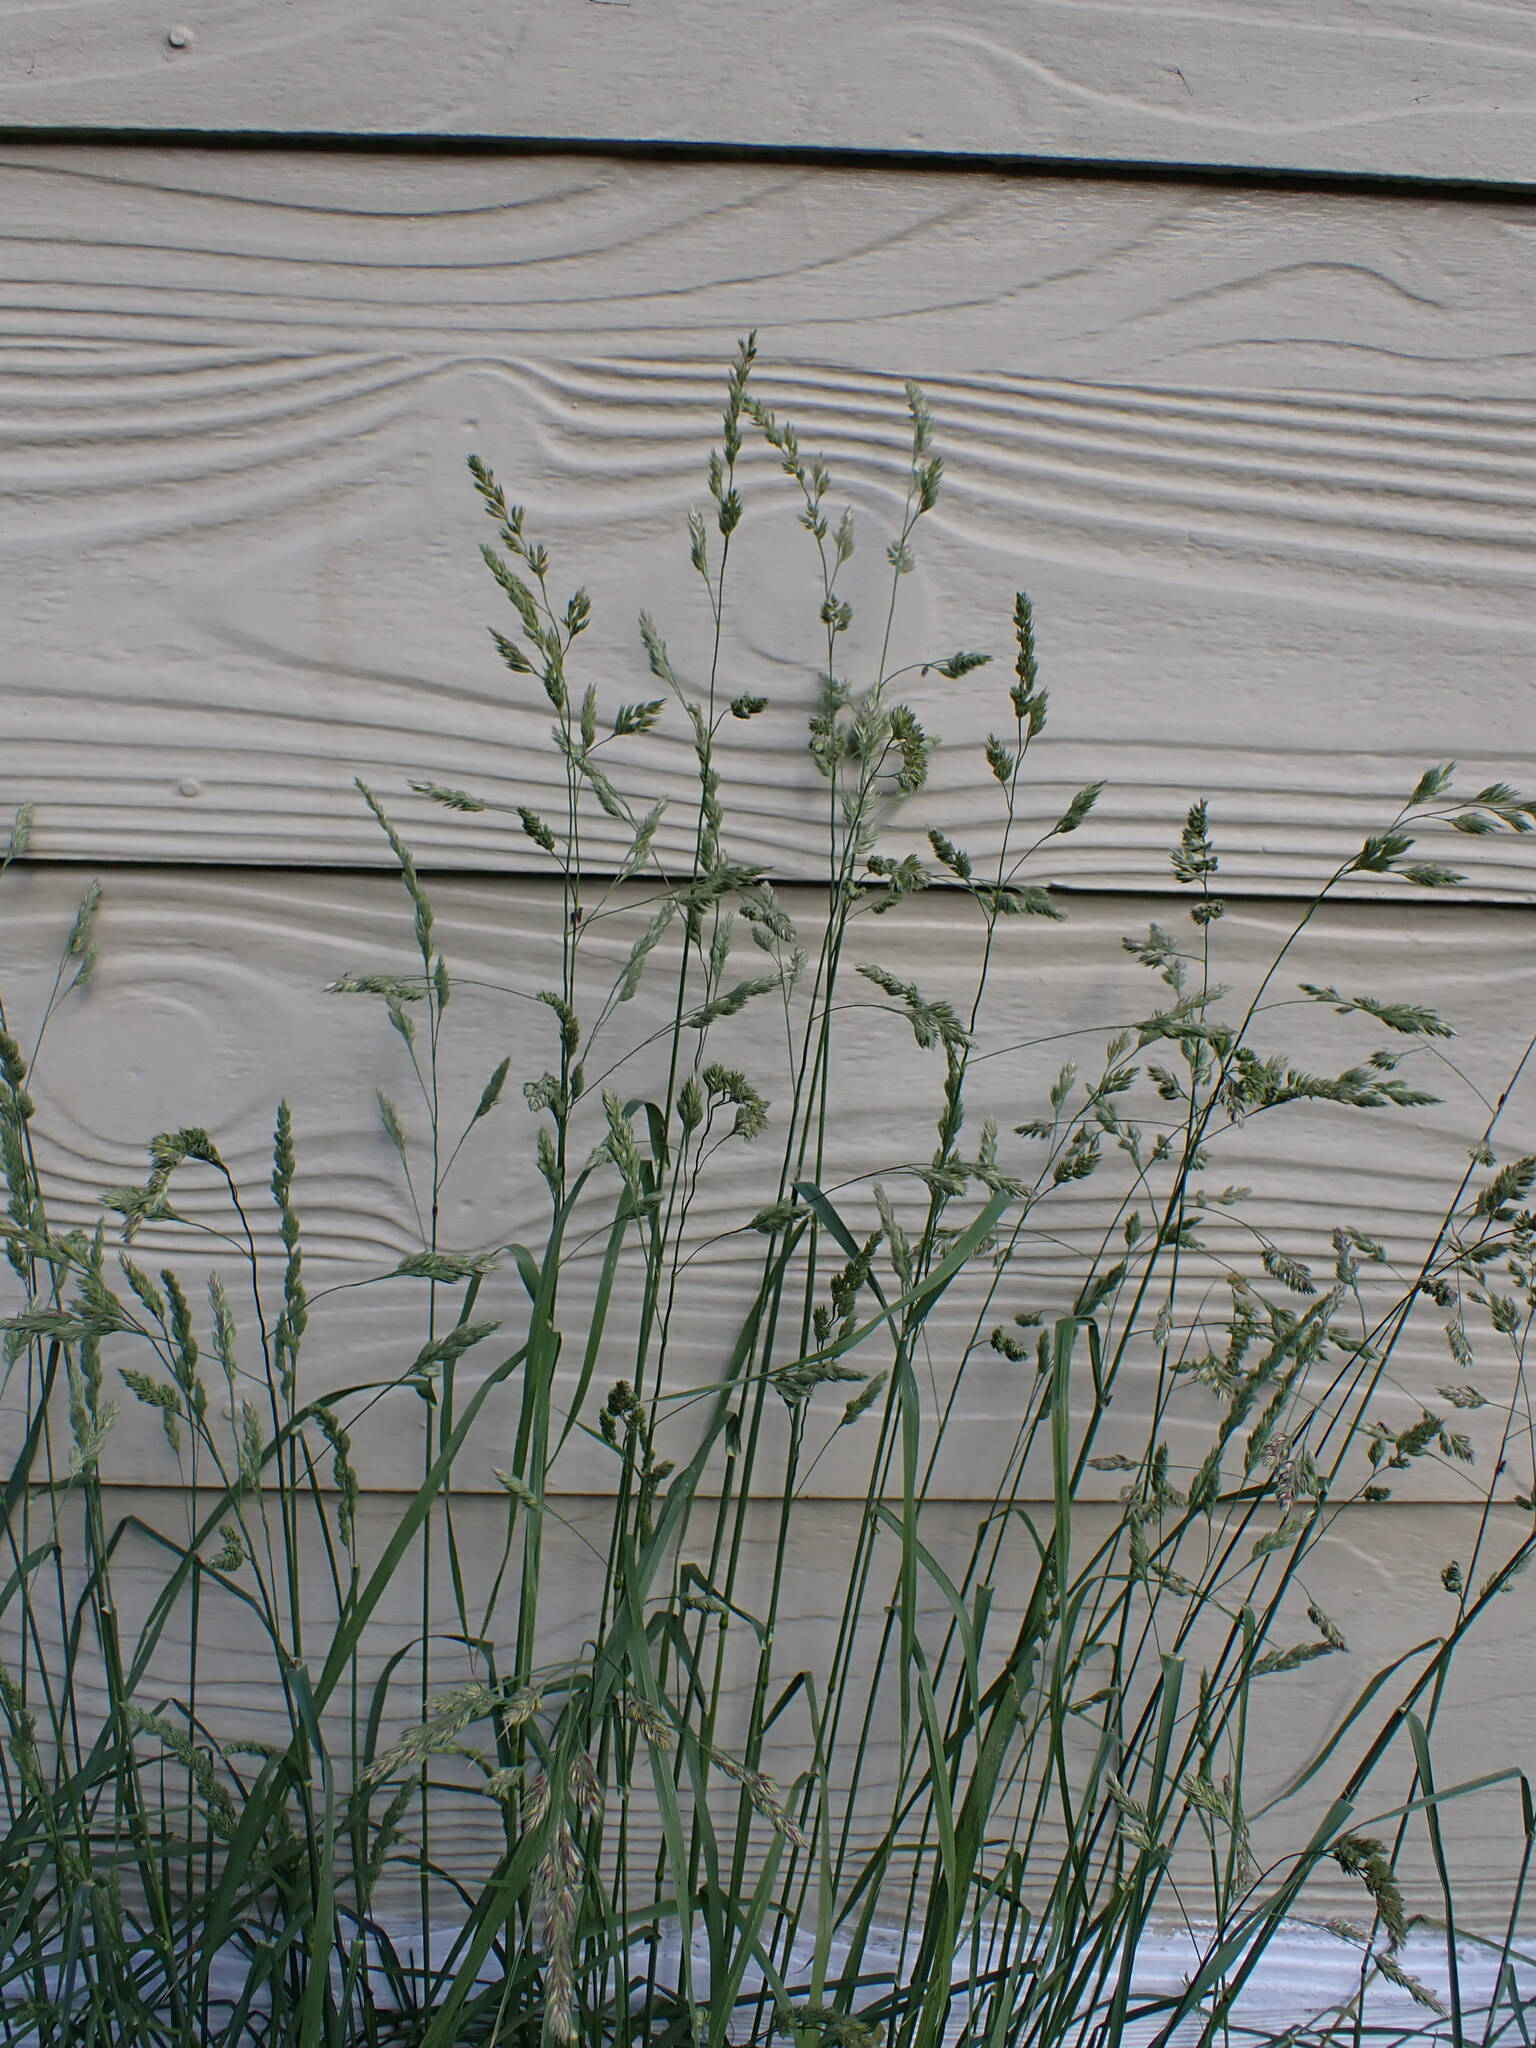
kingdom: Plantae
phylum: Tracheophyta
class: Liliopsida
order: Poales
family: Poaceae
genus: Dactylis
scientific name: Dactylis glomerata
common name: Orchardgrass
